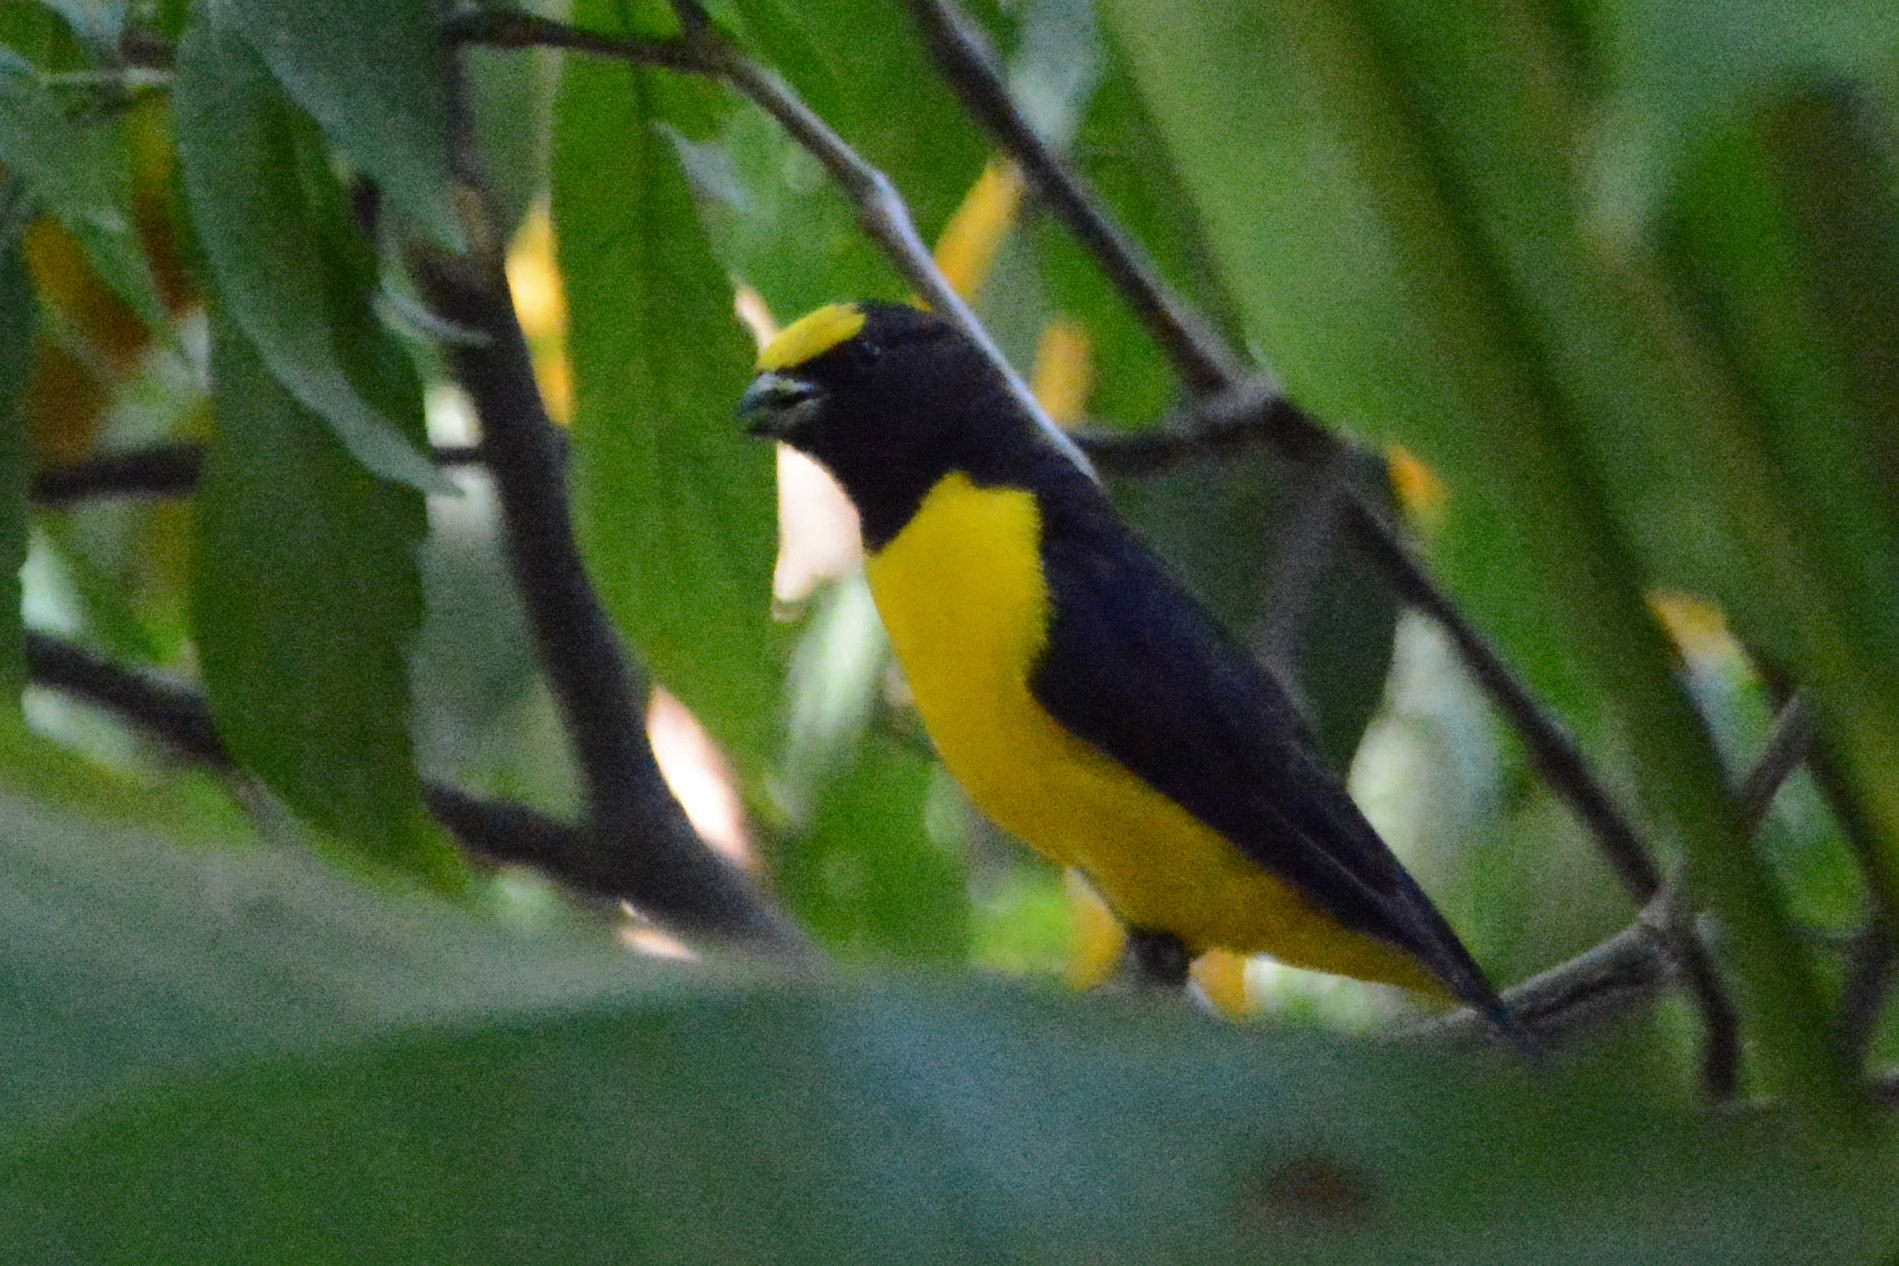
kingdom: Animalia
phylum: Chordata
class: Aves
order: Passeriformes
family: Fringillidae
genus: Euphonia
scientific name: Euphonia chlorotica
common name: Purple-throated euphonia
